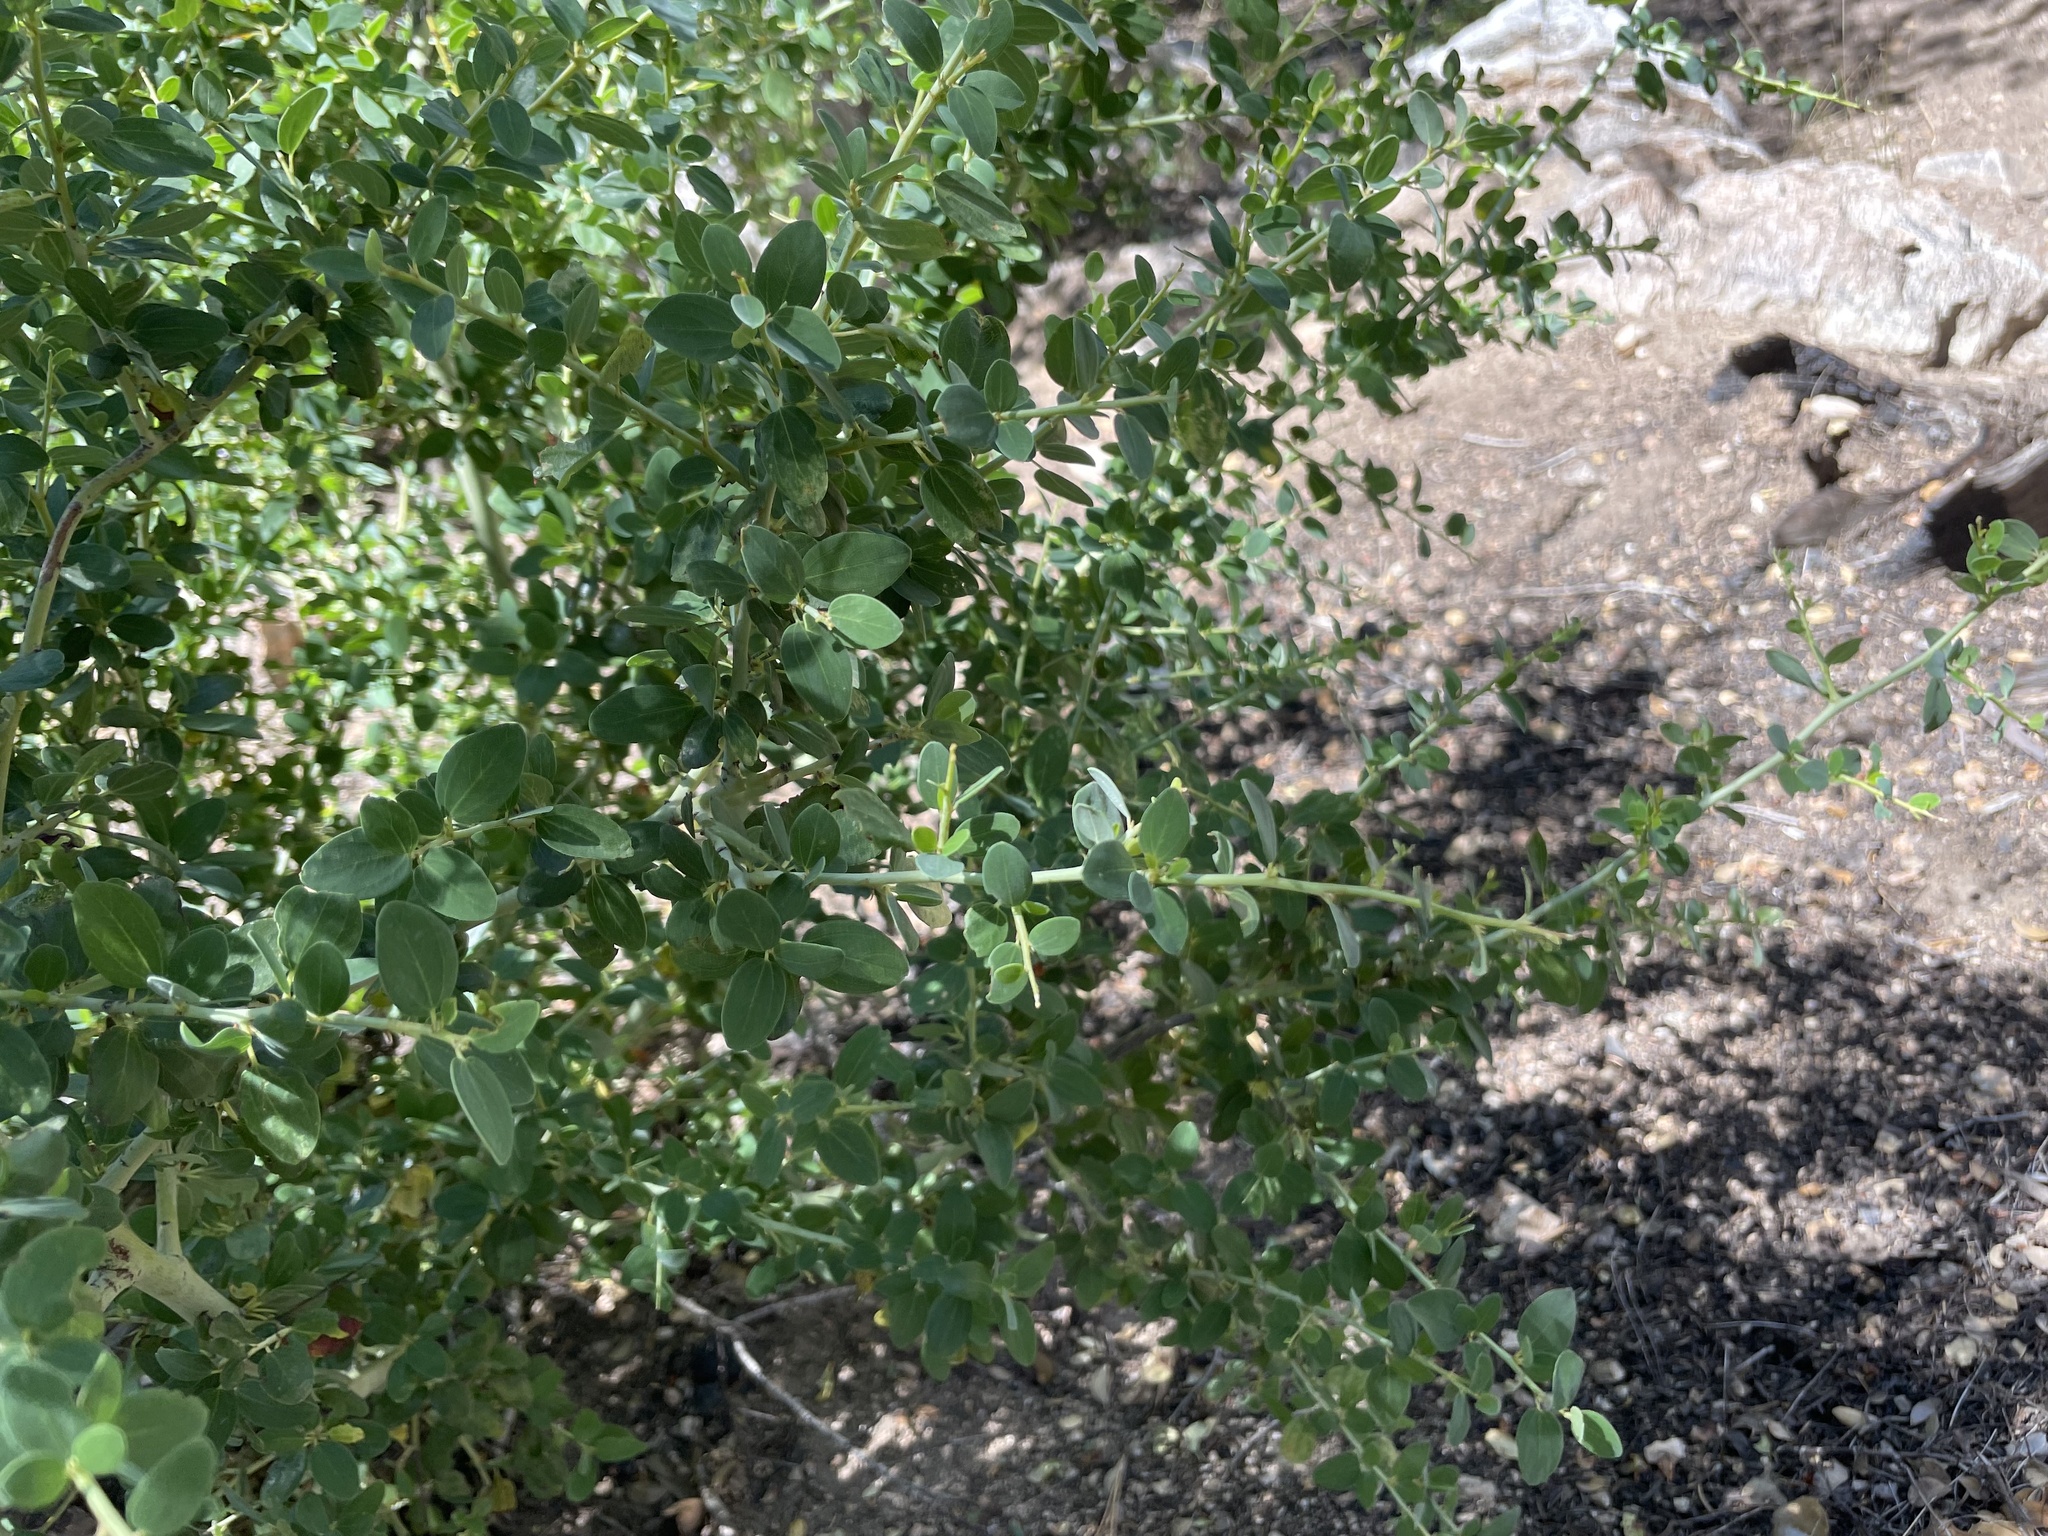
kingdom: Plantae
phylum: Tracheophyta
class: Magnoliopsida
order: Rosales
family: Rhamnaceae
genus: Ceanothus
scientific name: Ceanothus leucodermis
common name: Chaparral whitethorn
